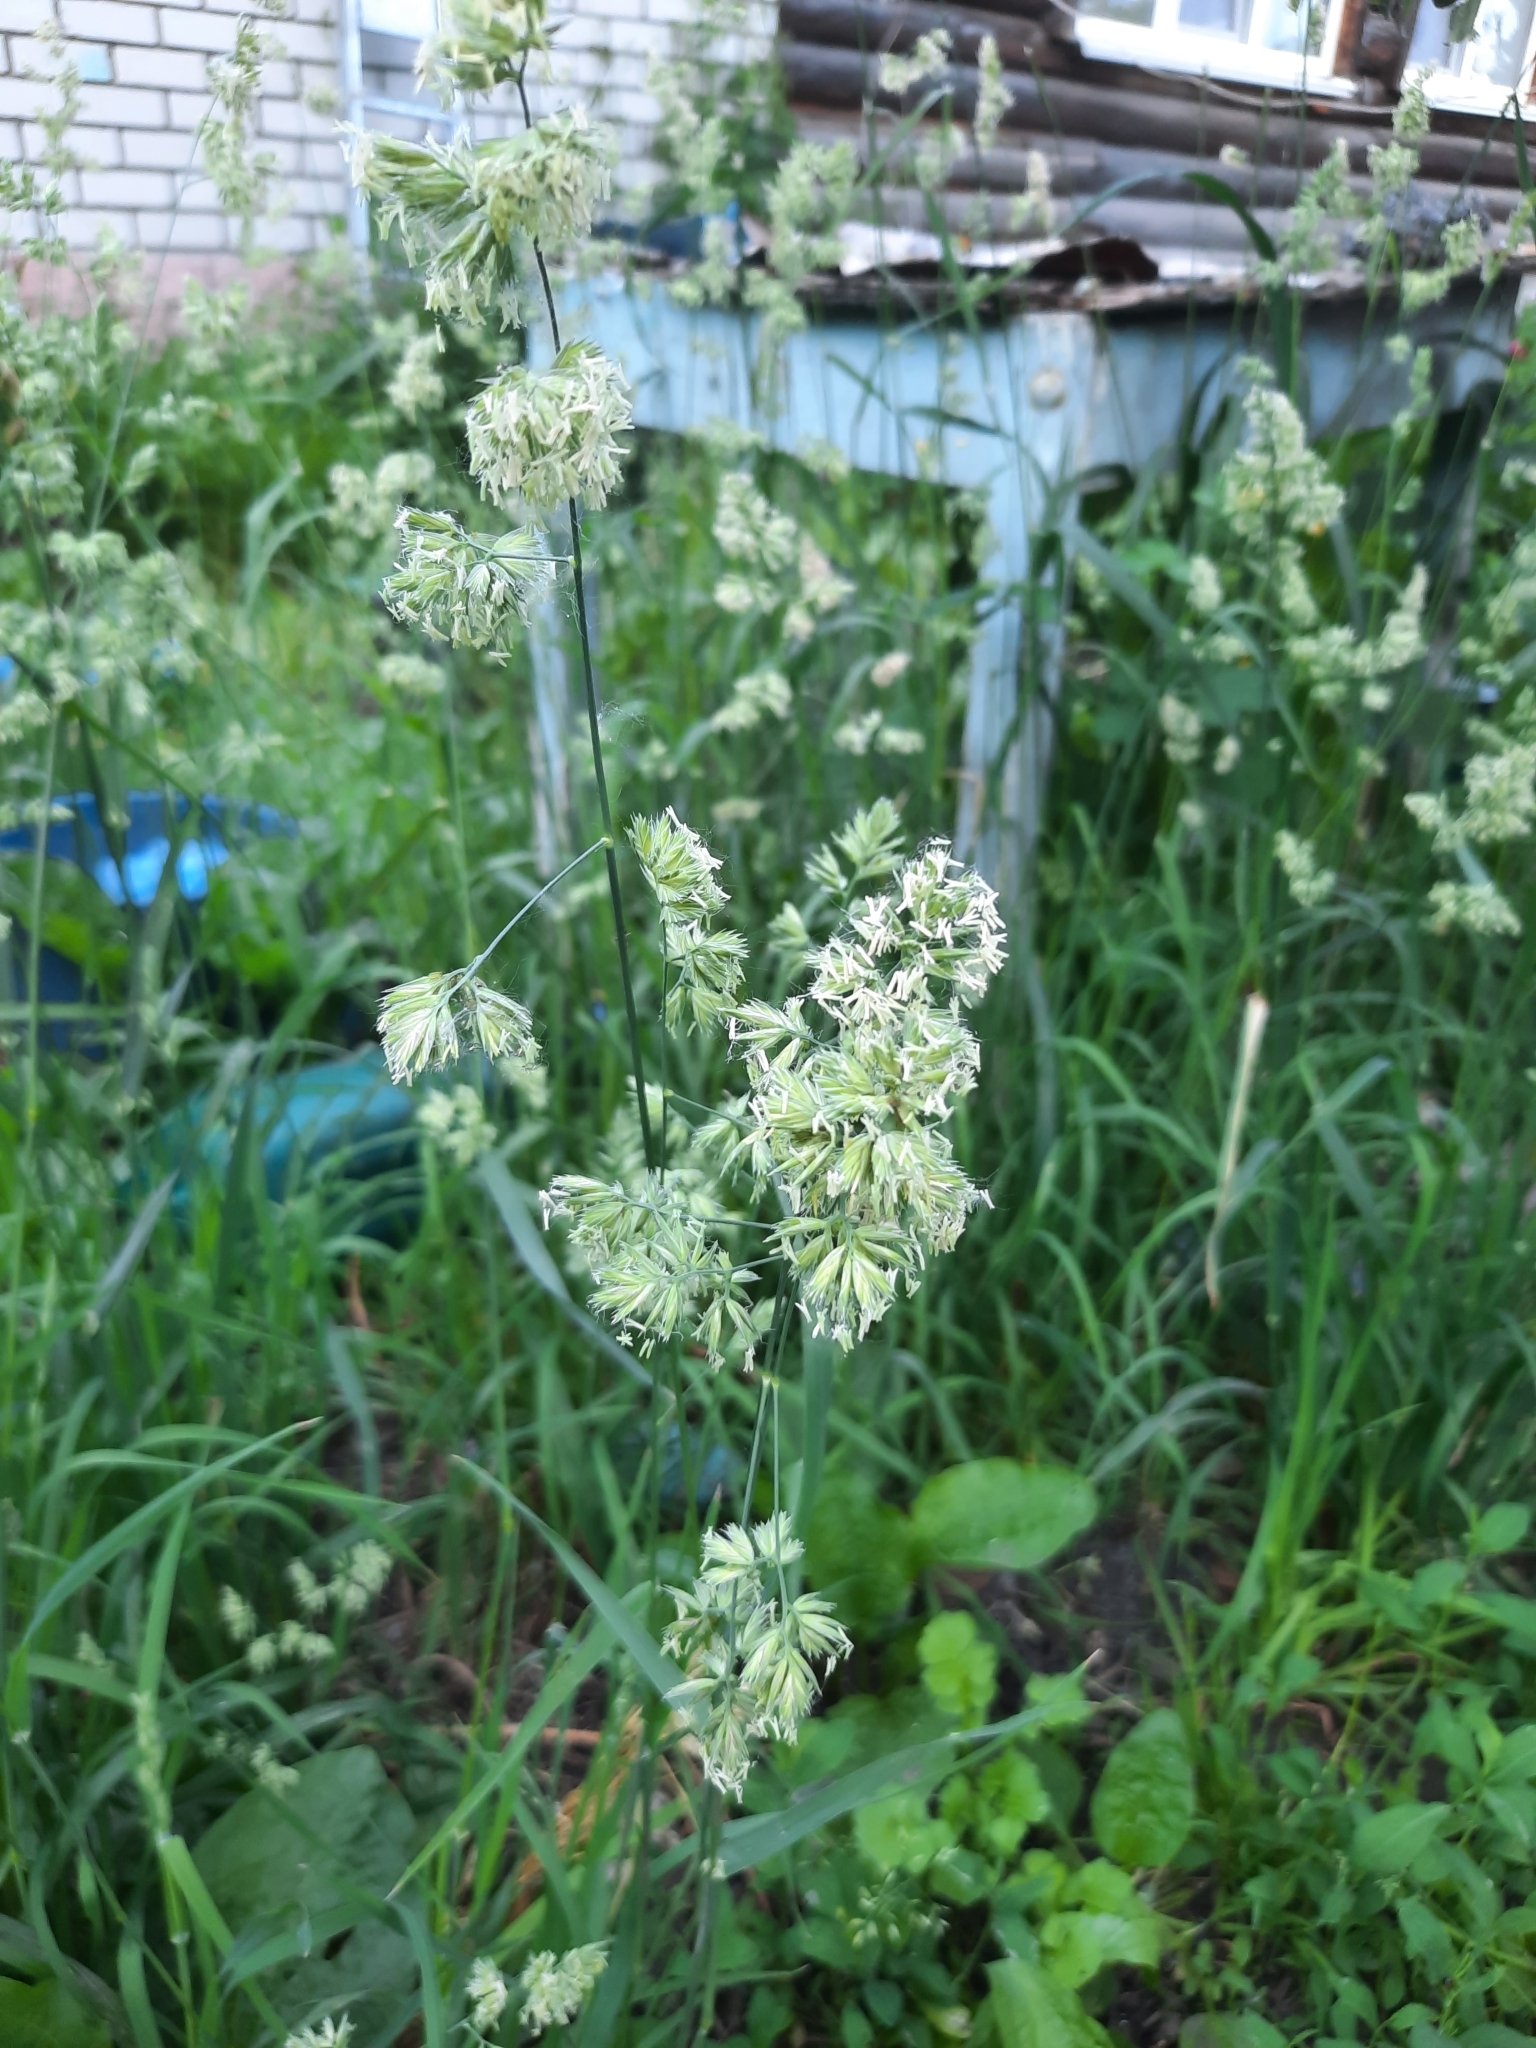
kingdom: Plantae
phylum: Tracheophyta
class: Liliopsida
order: Poales
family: Poaceae
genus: Dactylis
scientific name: Dactylis glomerata
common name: Orchardgrass
